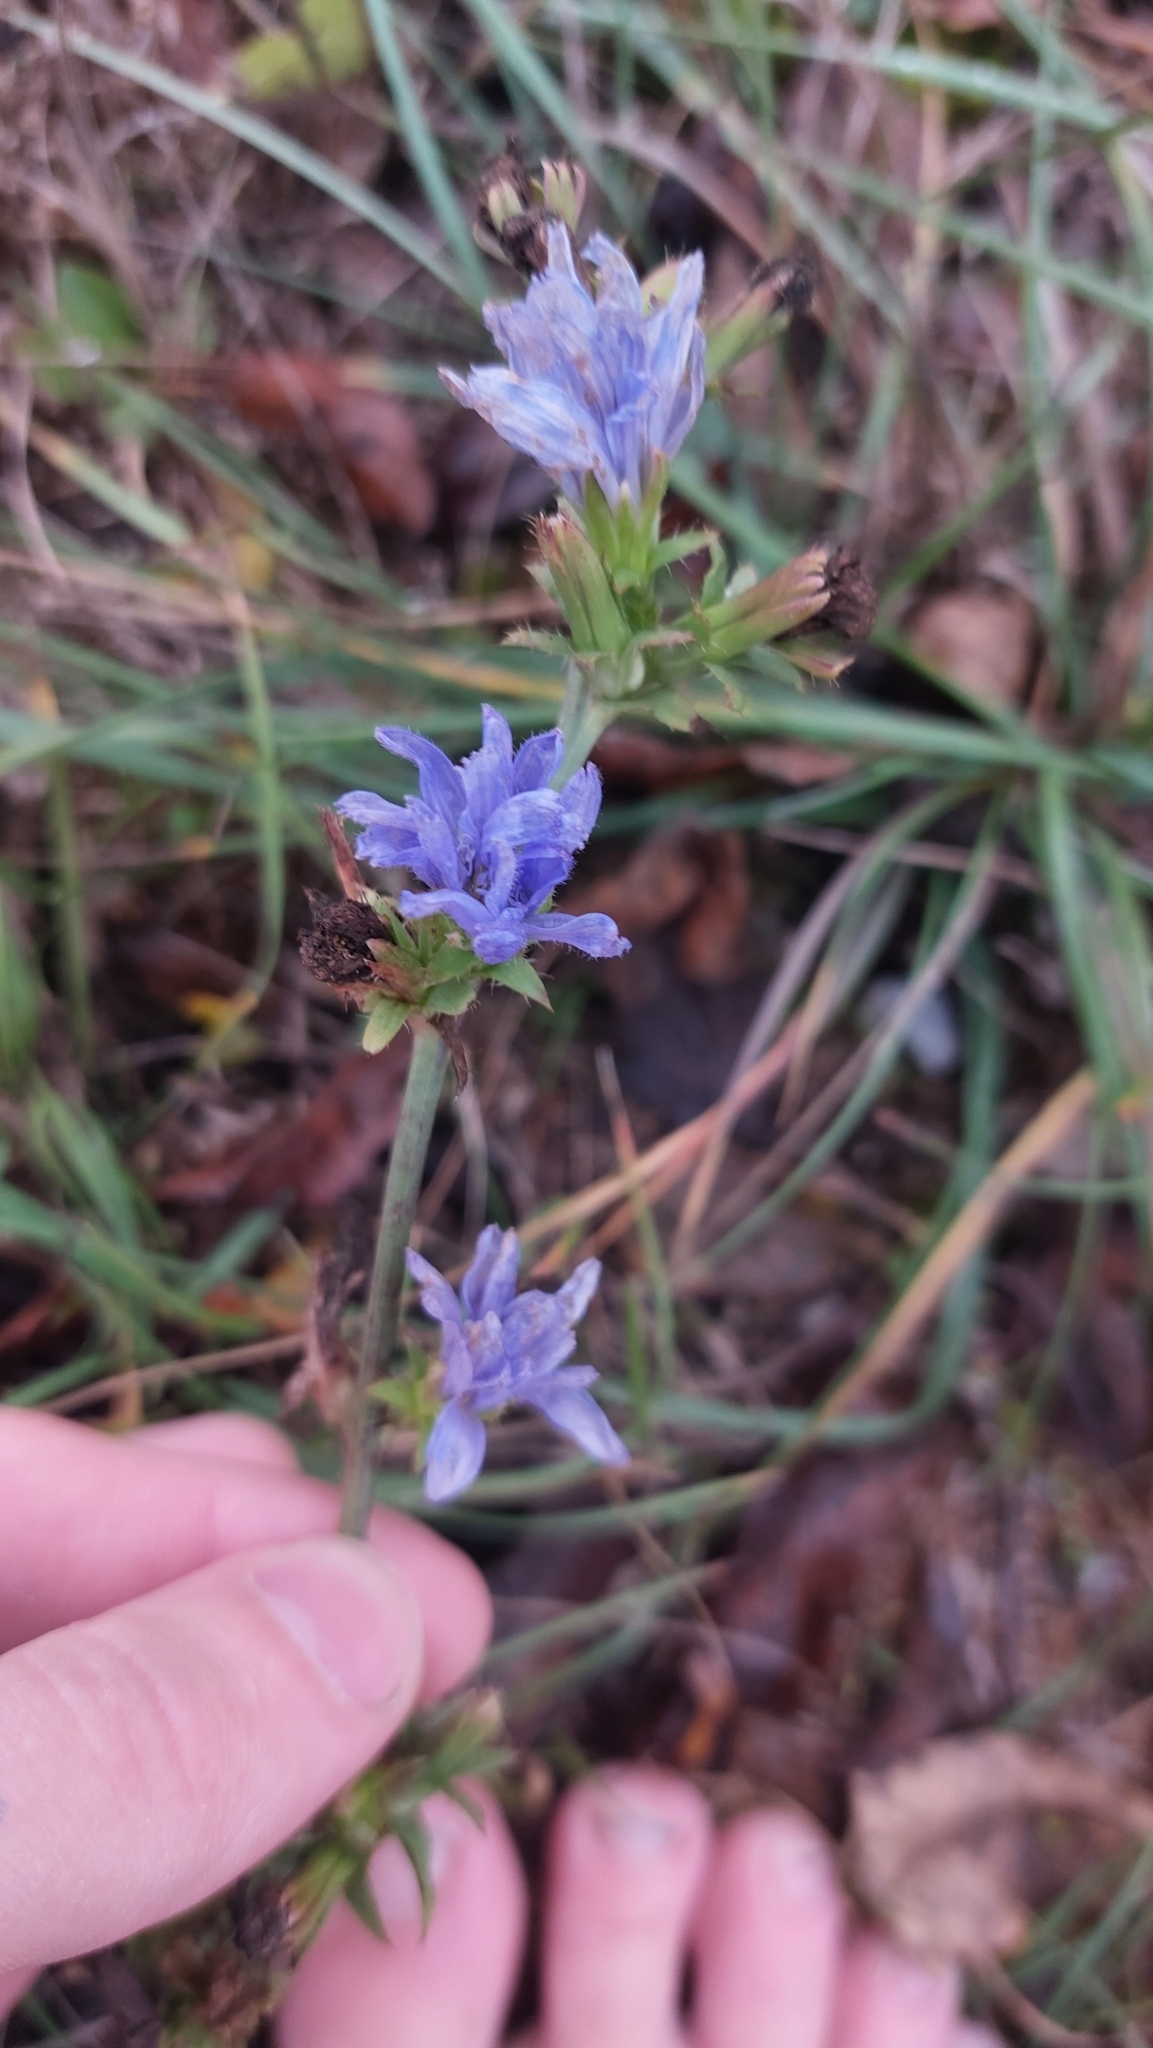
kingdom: Plantae
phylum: Tracheophyta
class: Magnoliopsida
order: Asterales
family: Asteraceae
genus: Cichorium
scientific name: Cichorium intybus
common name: Chicory
